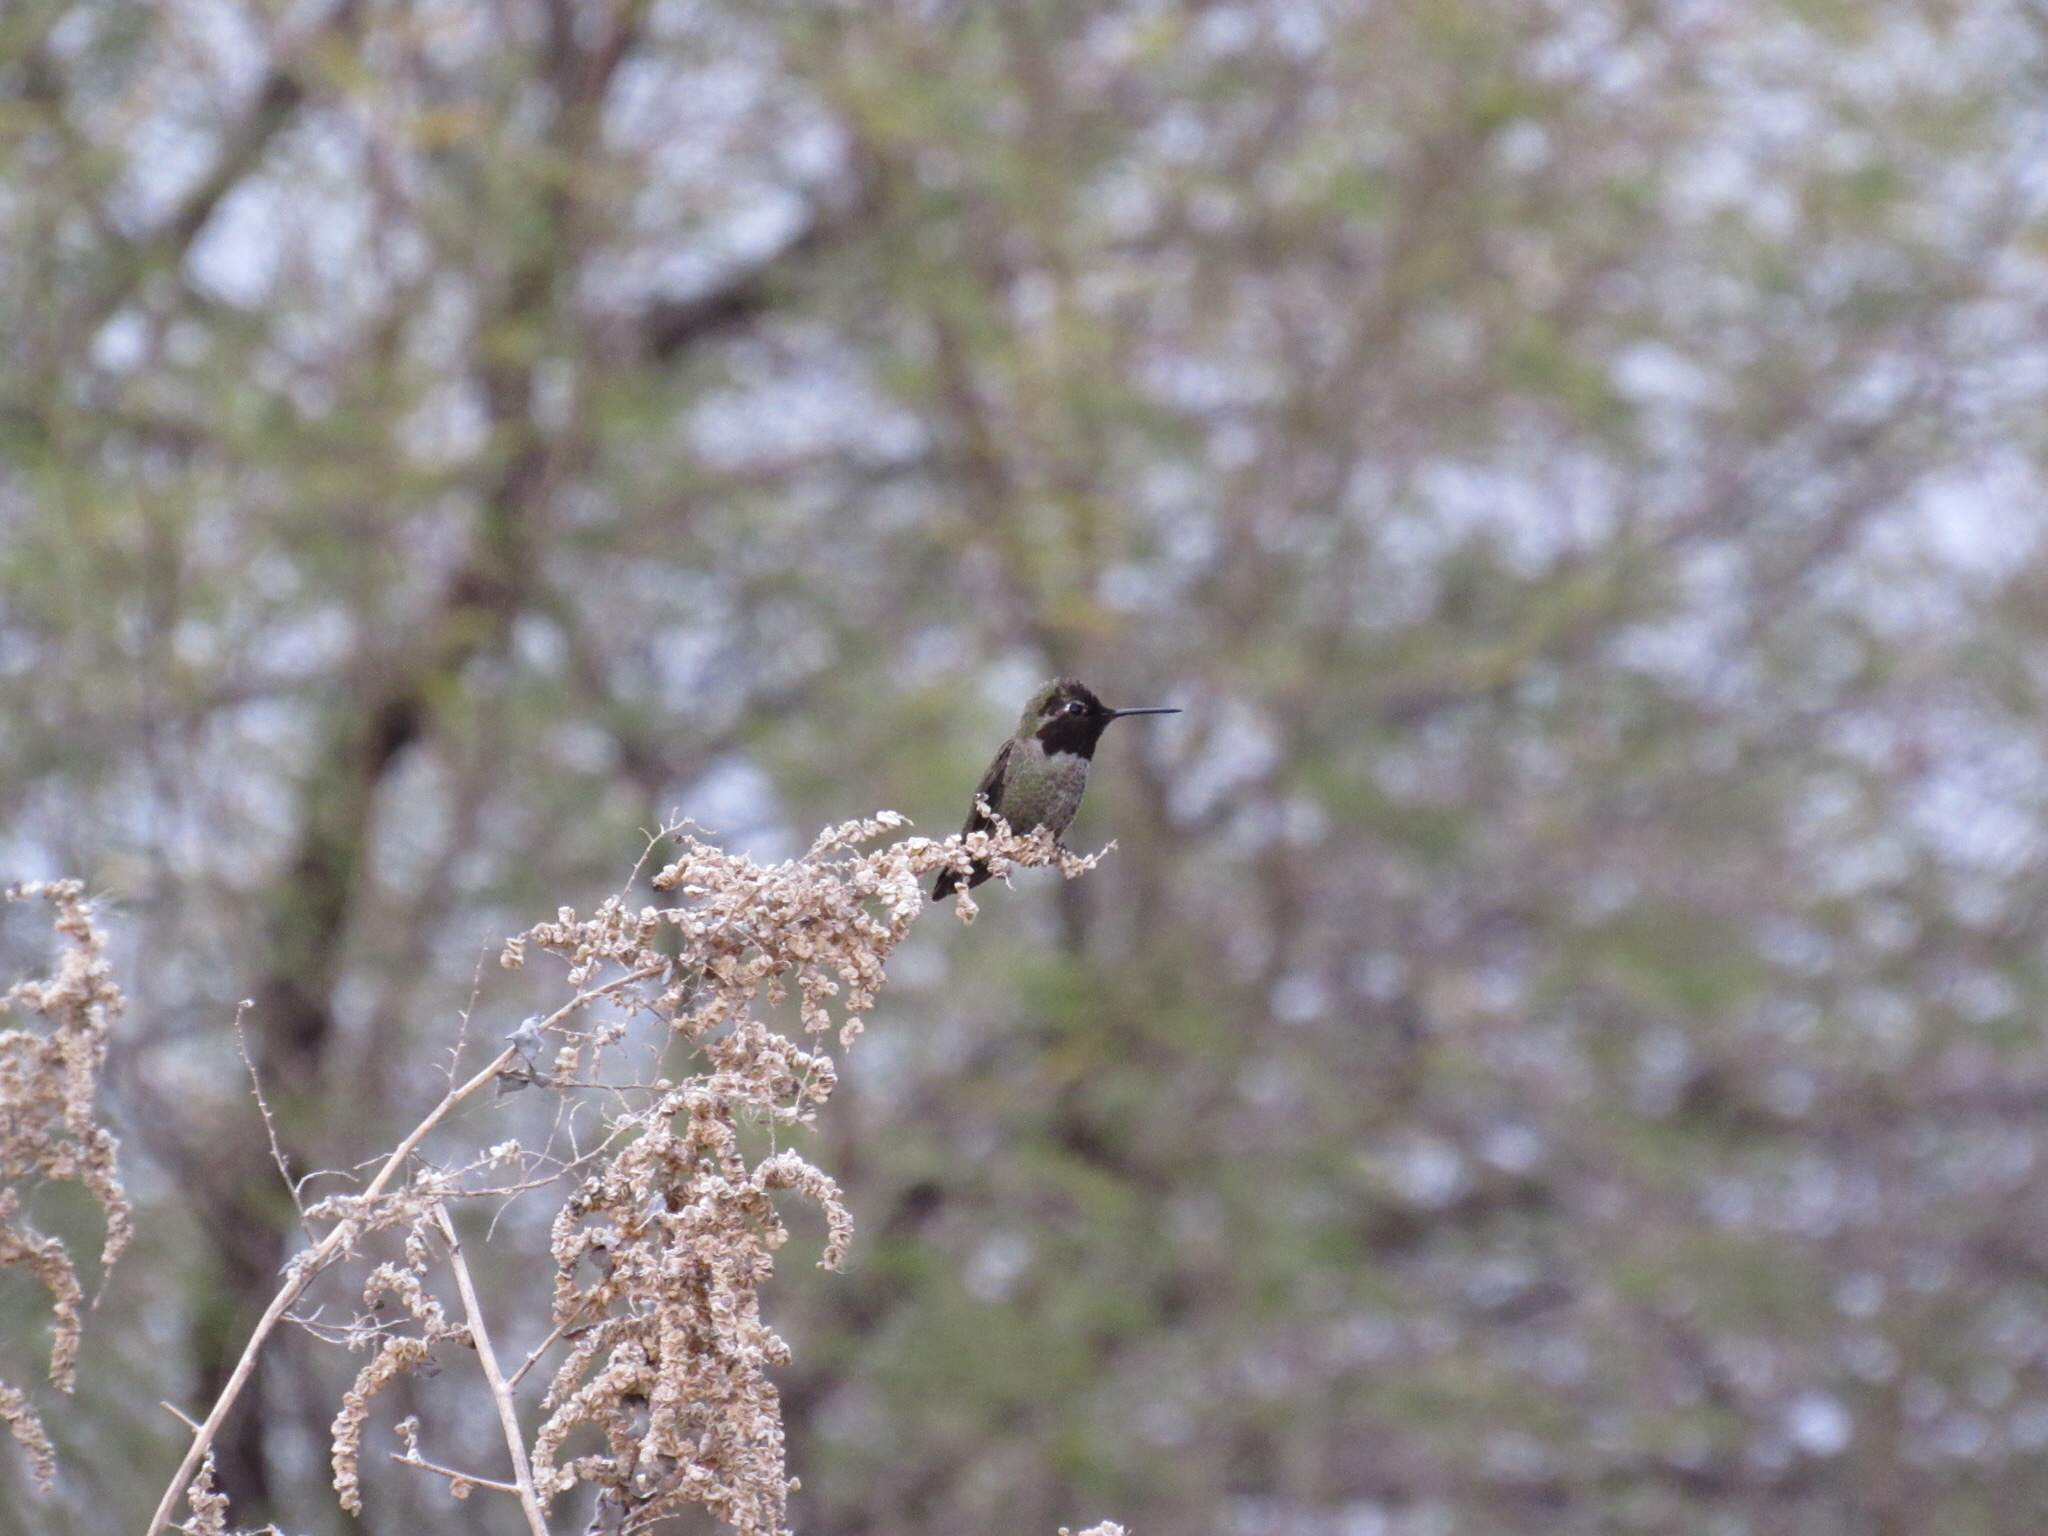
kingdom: Animalia
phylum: Chordata
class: Aves
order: Apodiformes
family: Trochilidae
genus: Calypte
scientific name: Calypte anna
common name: Anna's hummingbird
